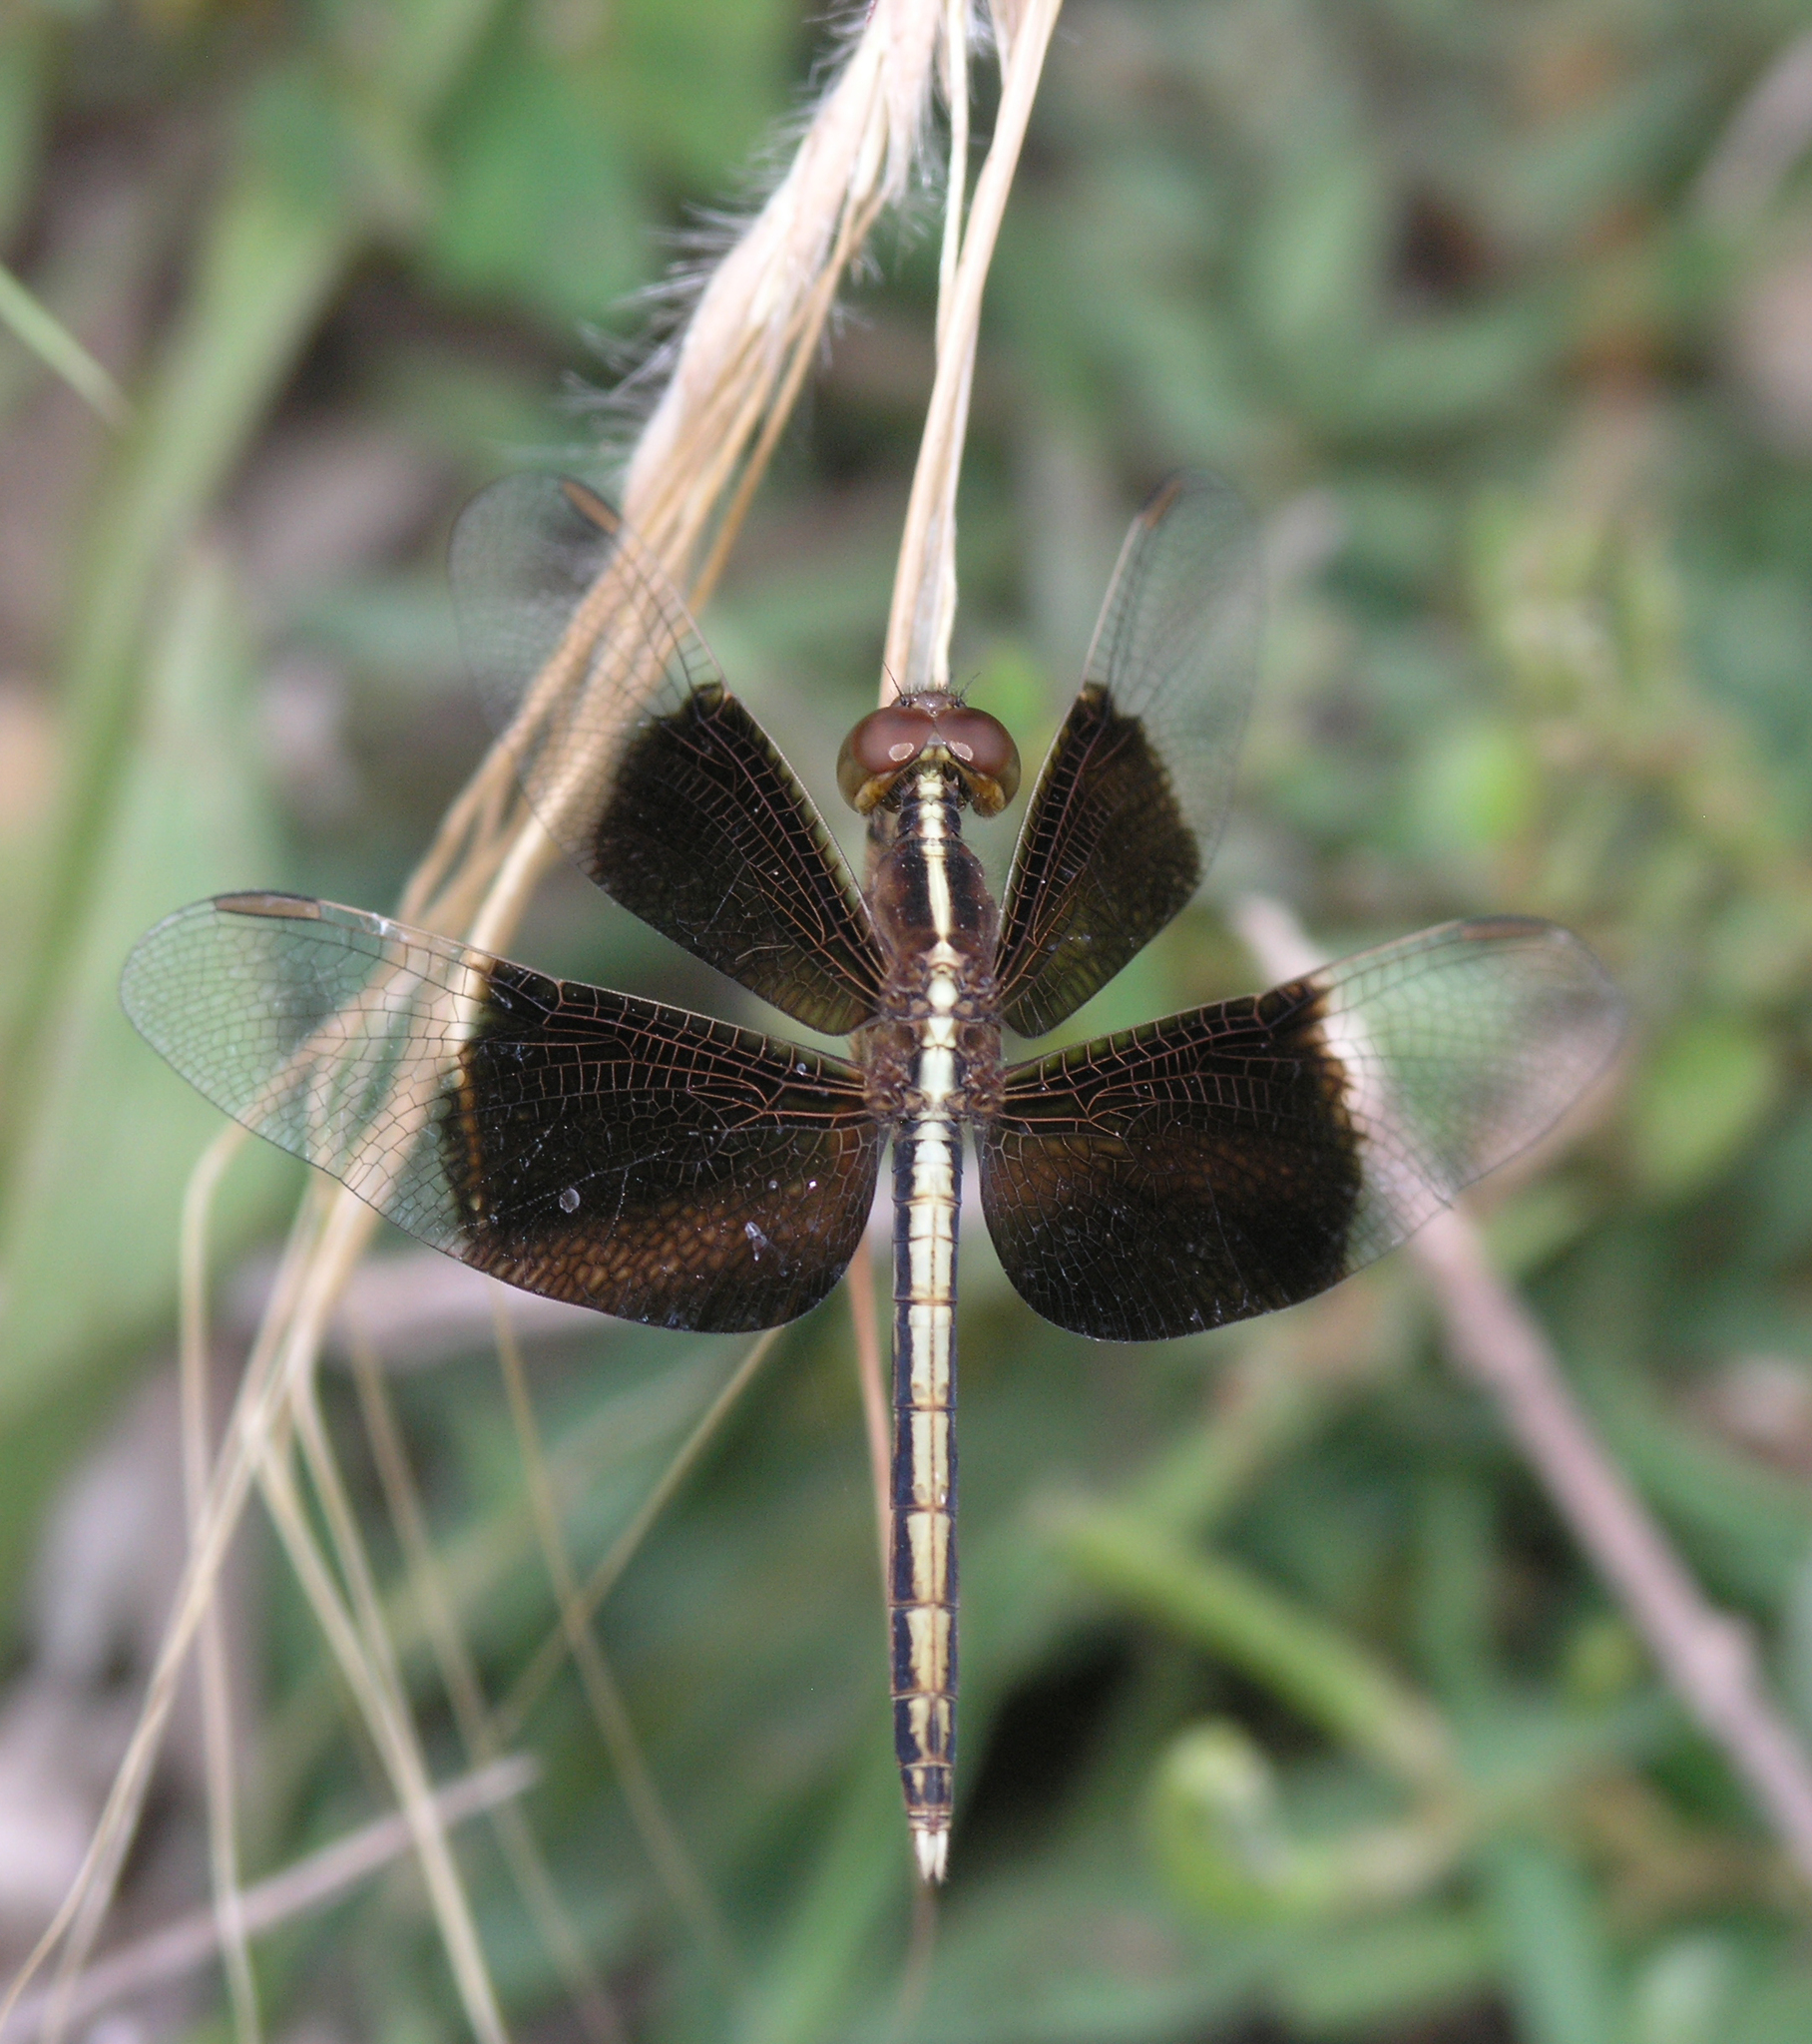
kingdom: Animalia
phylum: Arthropoda
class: Insecta
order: Odonata
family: Libellulidae
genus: Neurothemis
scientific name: Neurothemis tullia
